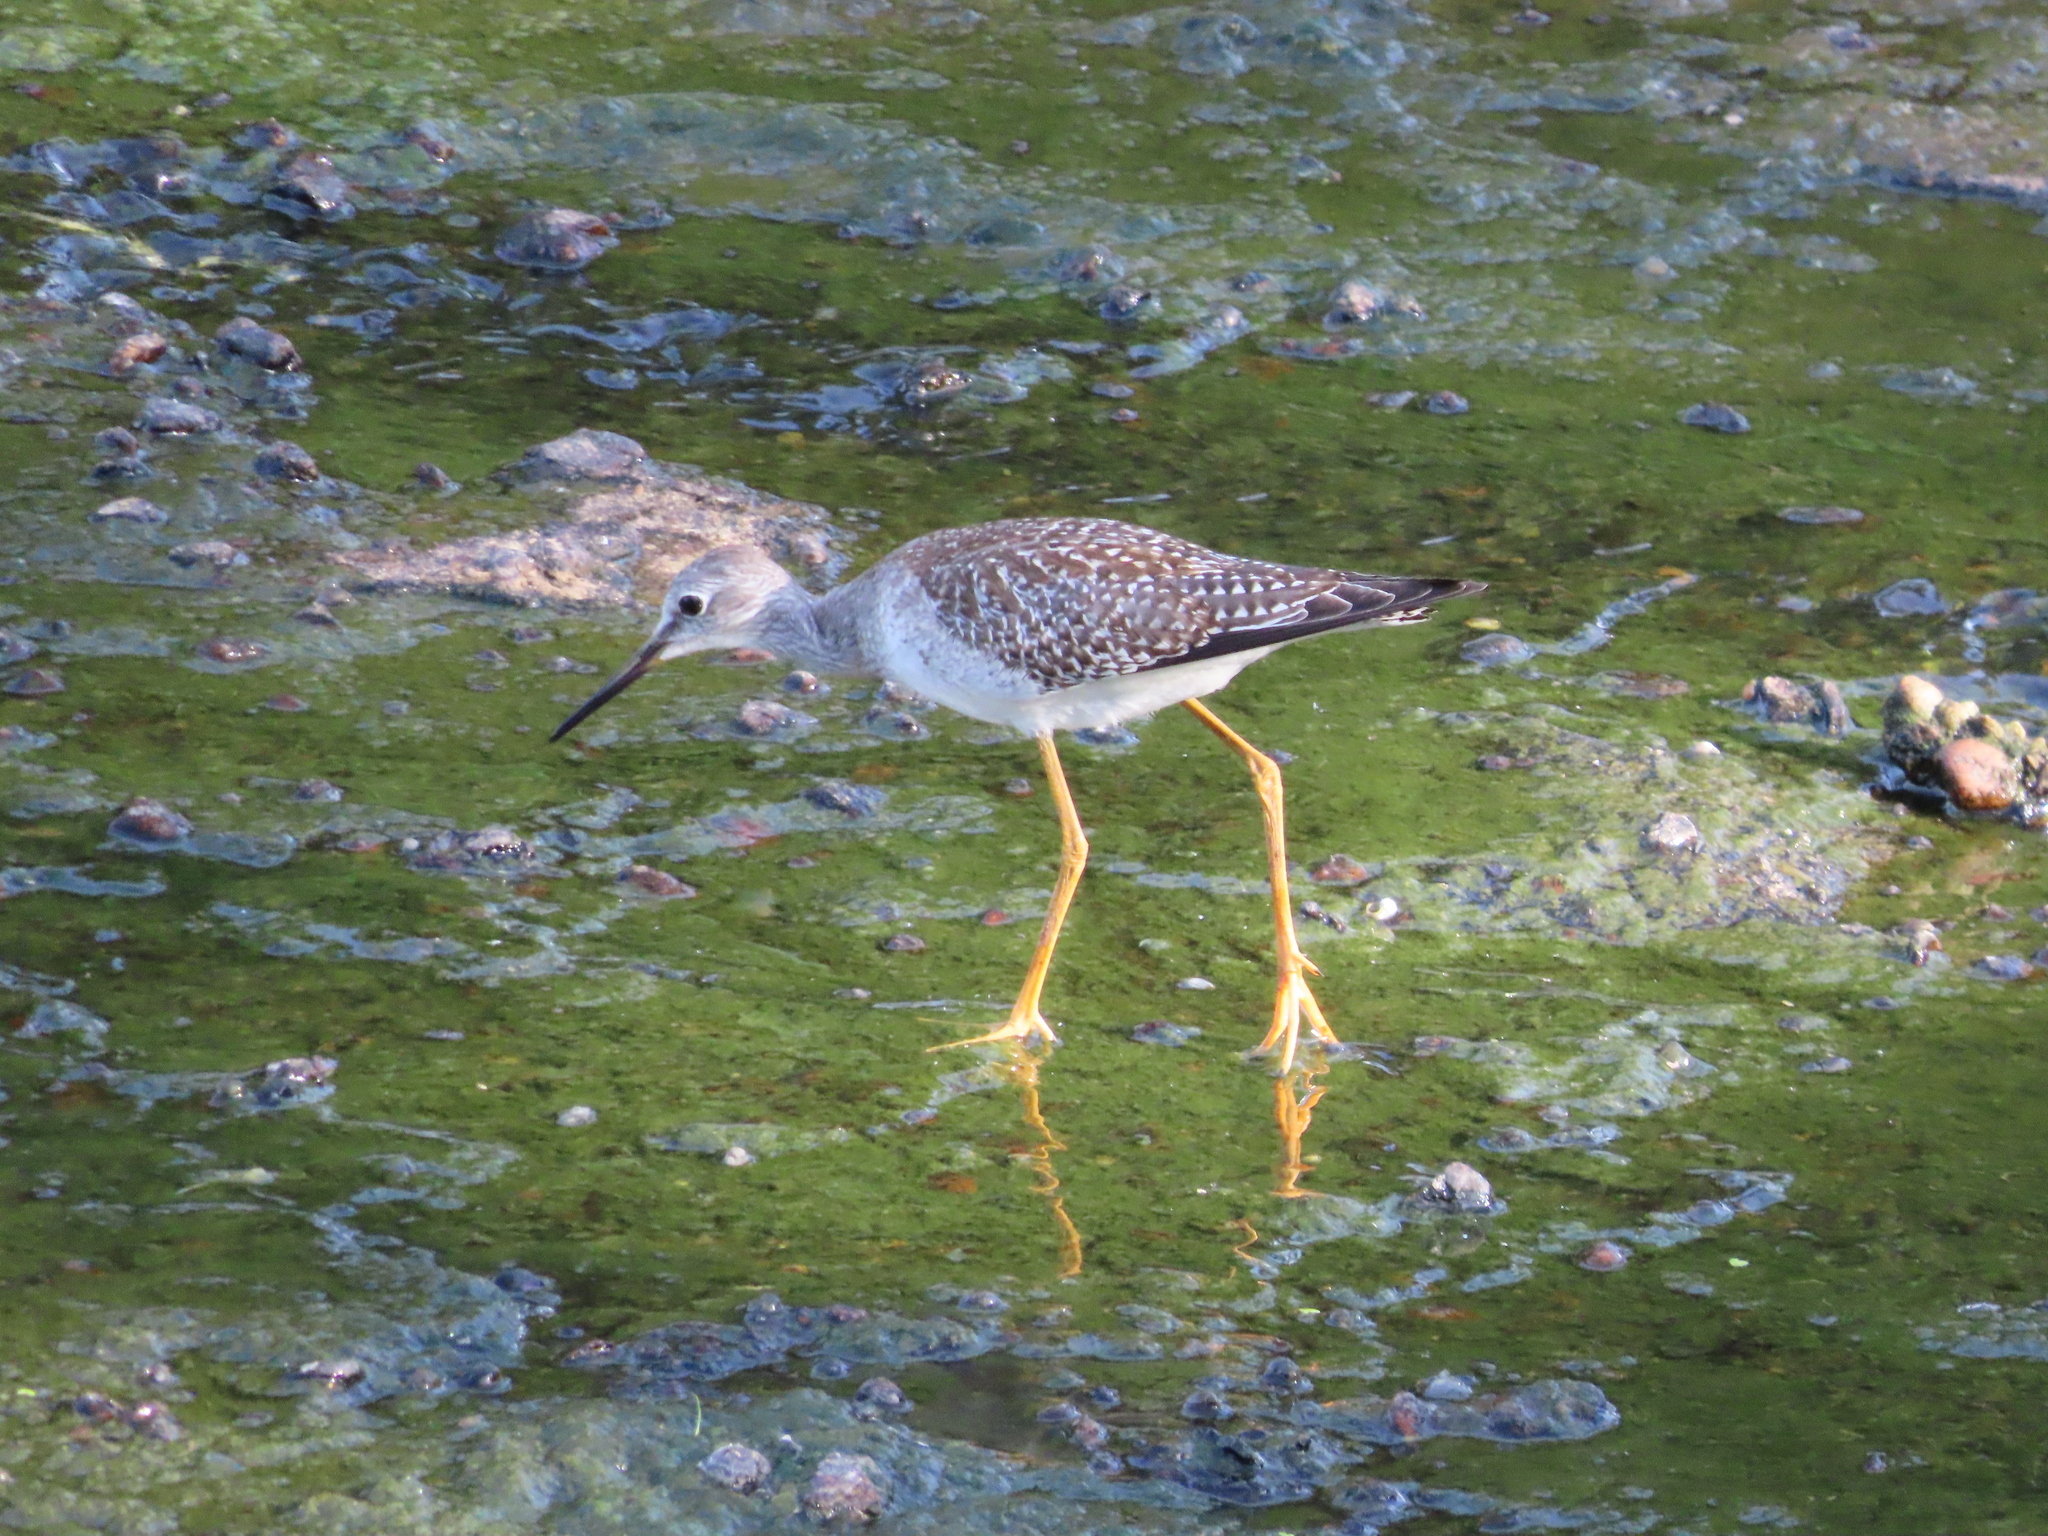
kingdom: Animalia
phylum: Chordata
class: Aves
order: Charadriiformes
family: Scolopacidae
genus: Tringa
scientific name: Tringa flavipes
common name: Lesser yellowlegs
